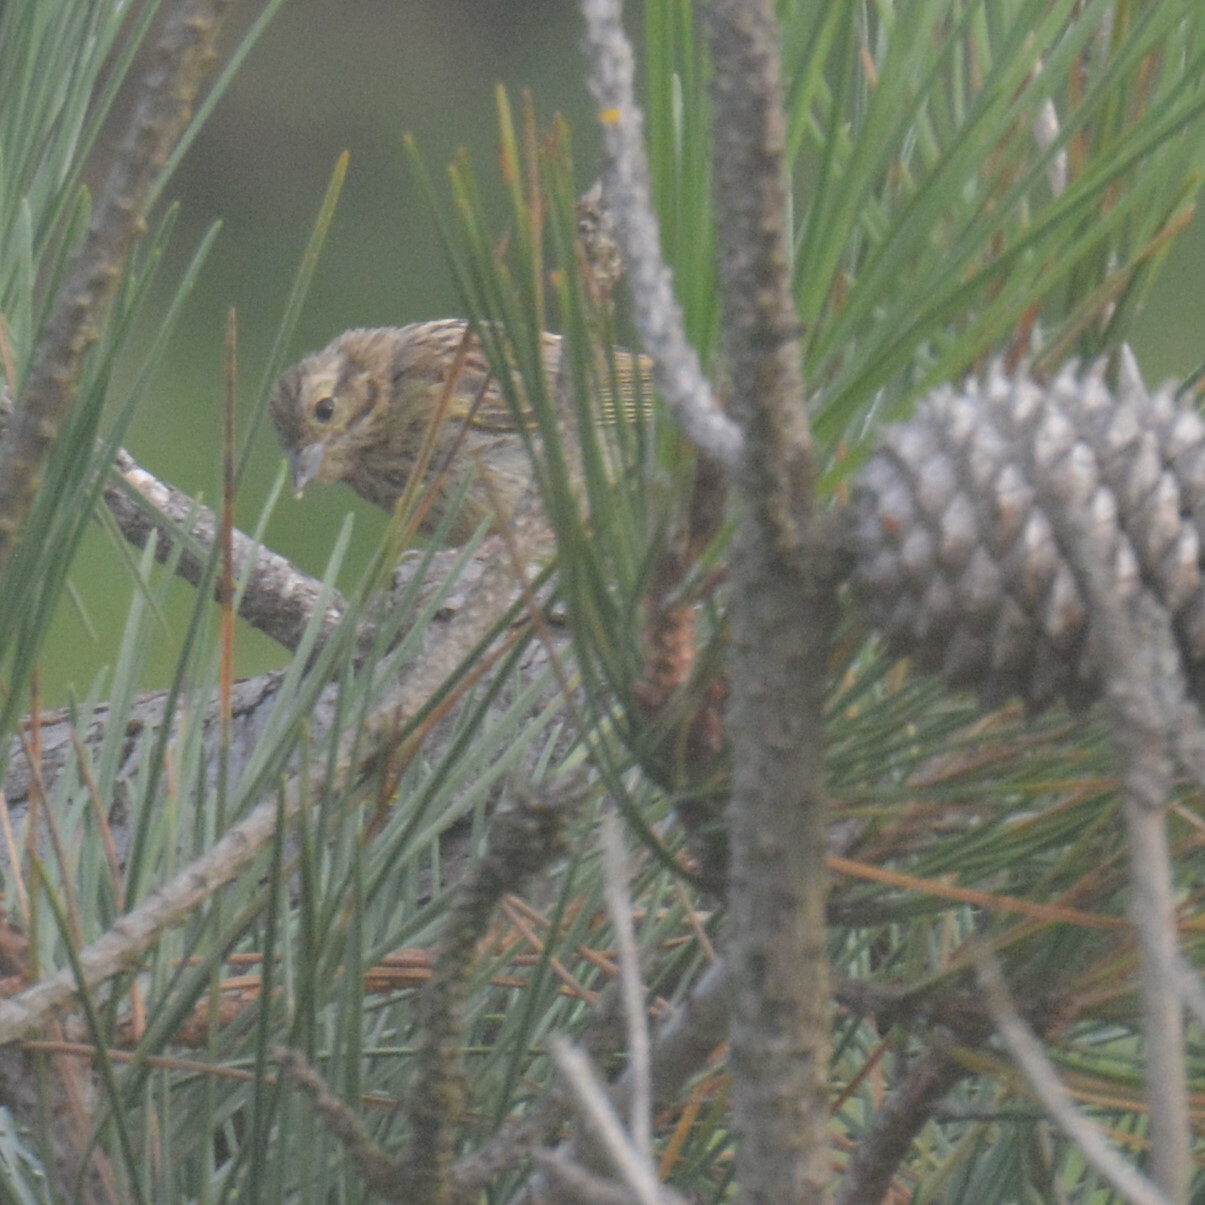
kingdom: Animalia
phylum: Chordata
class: Aves
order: Passeriformes
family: Emberizidae
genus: Emberiza
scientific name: Emberiza cirlus
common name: Cirl bunting
